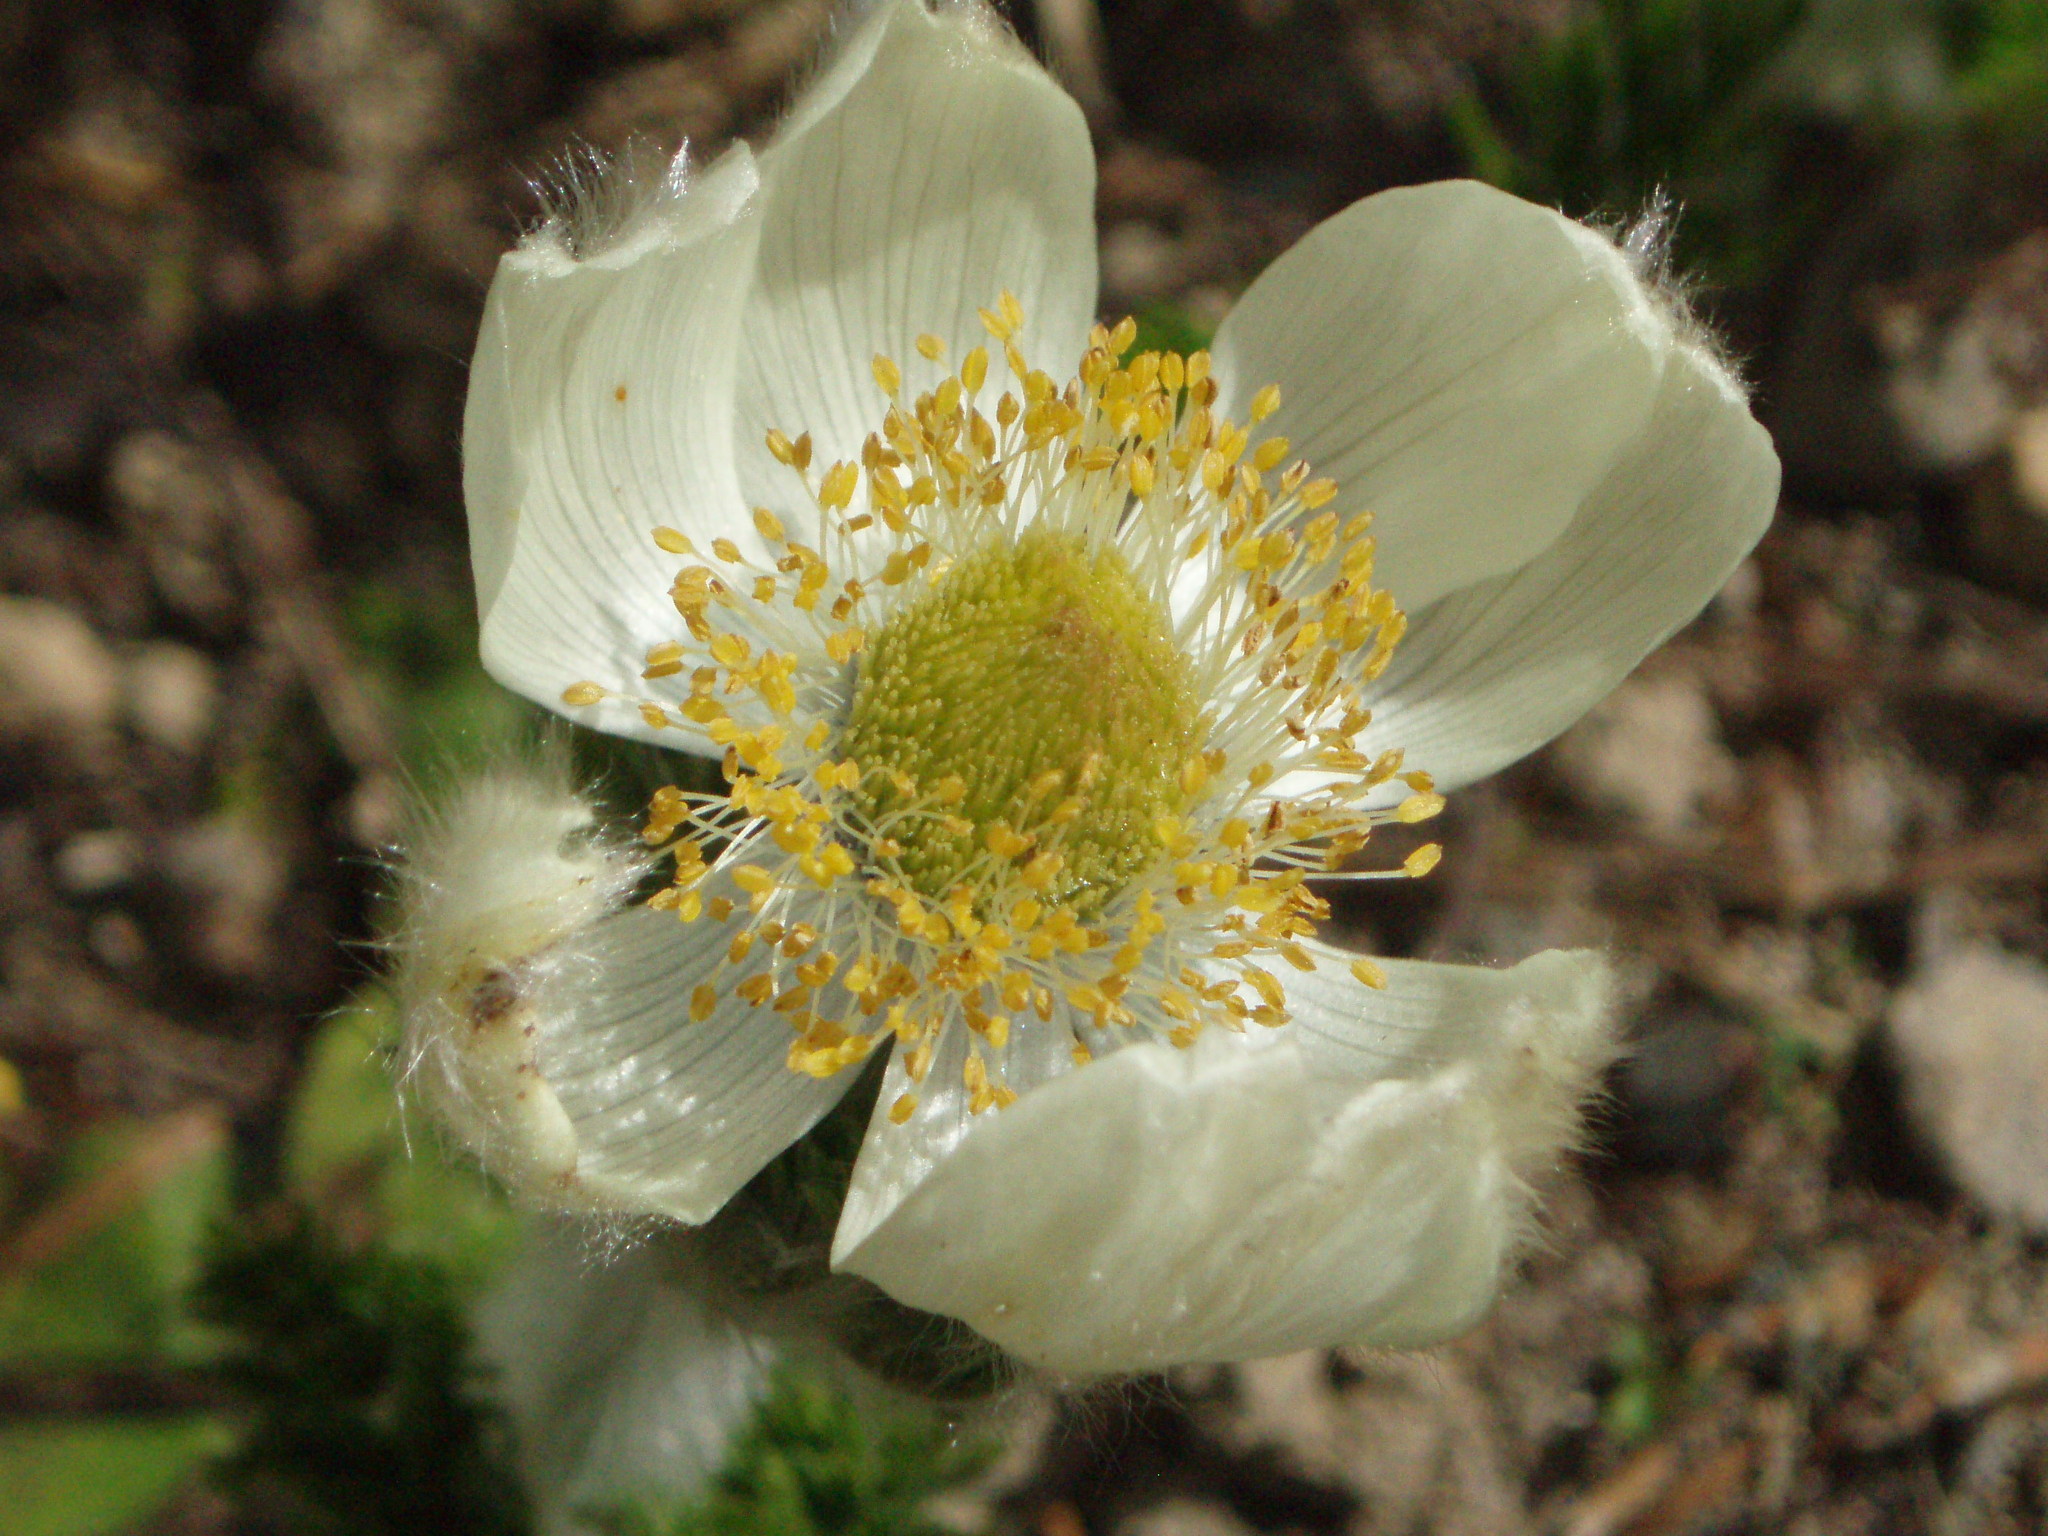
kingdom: Plantae
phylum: Tracheophyta
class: Magnoliopsida
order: Ranunculales
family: Ranunculaceae
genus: Pulsatilla
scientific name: Pulsatilla occidentalis
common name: Mountain pasqueflower
